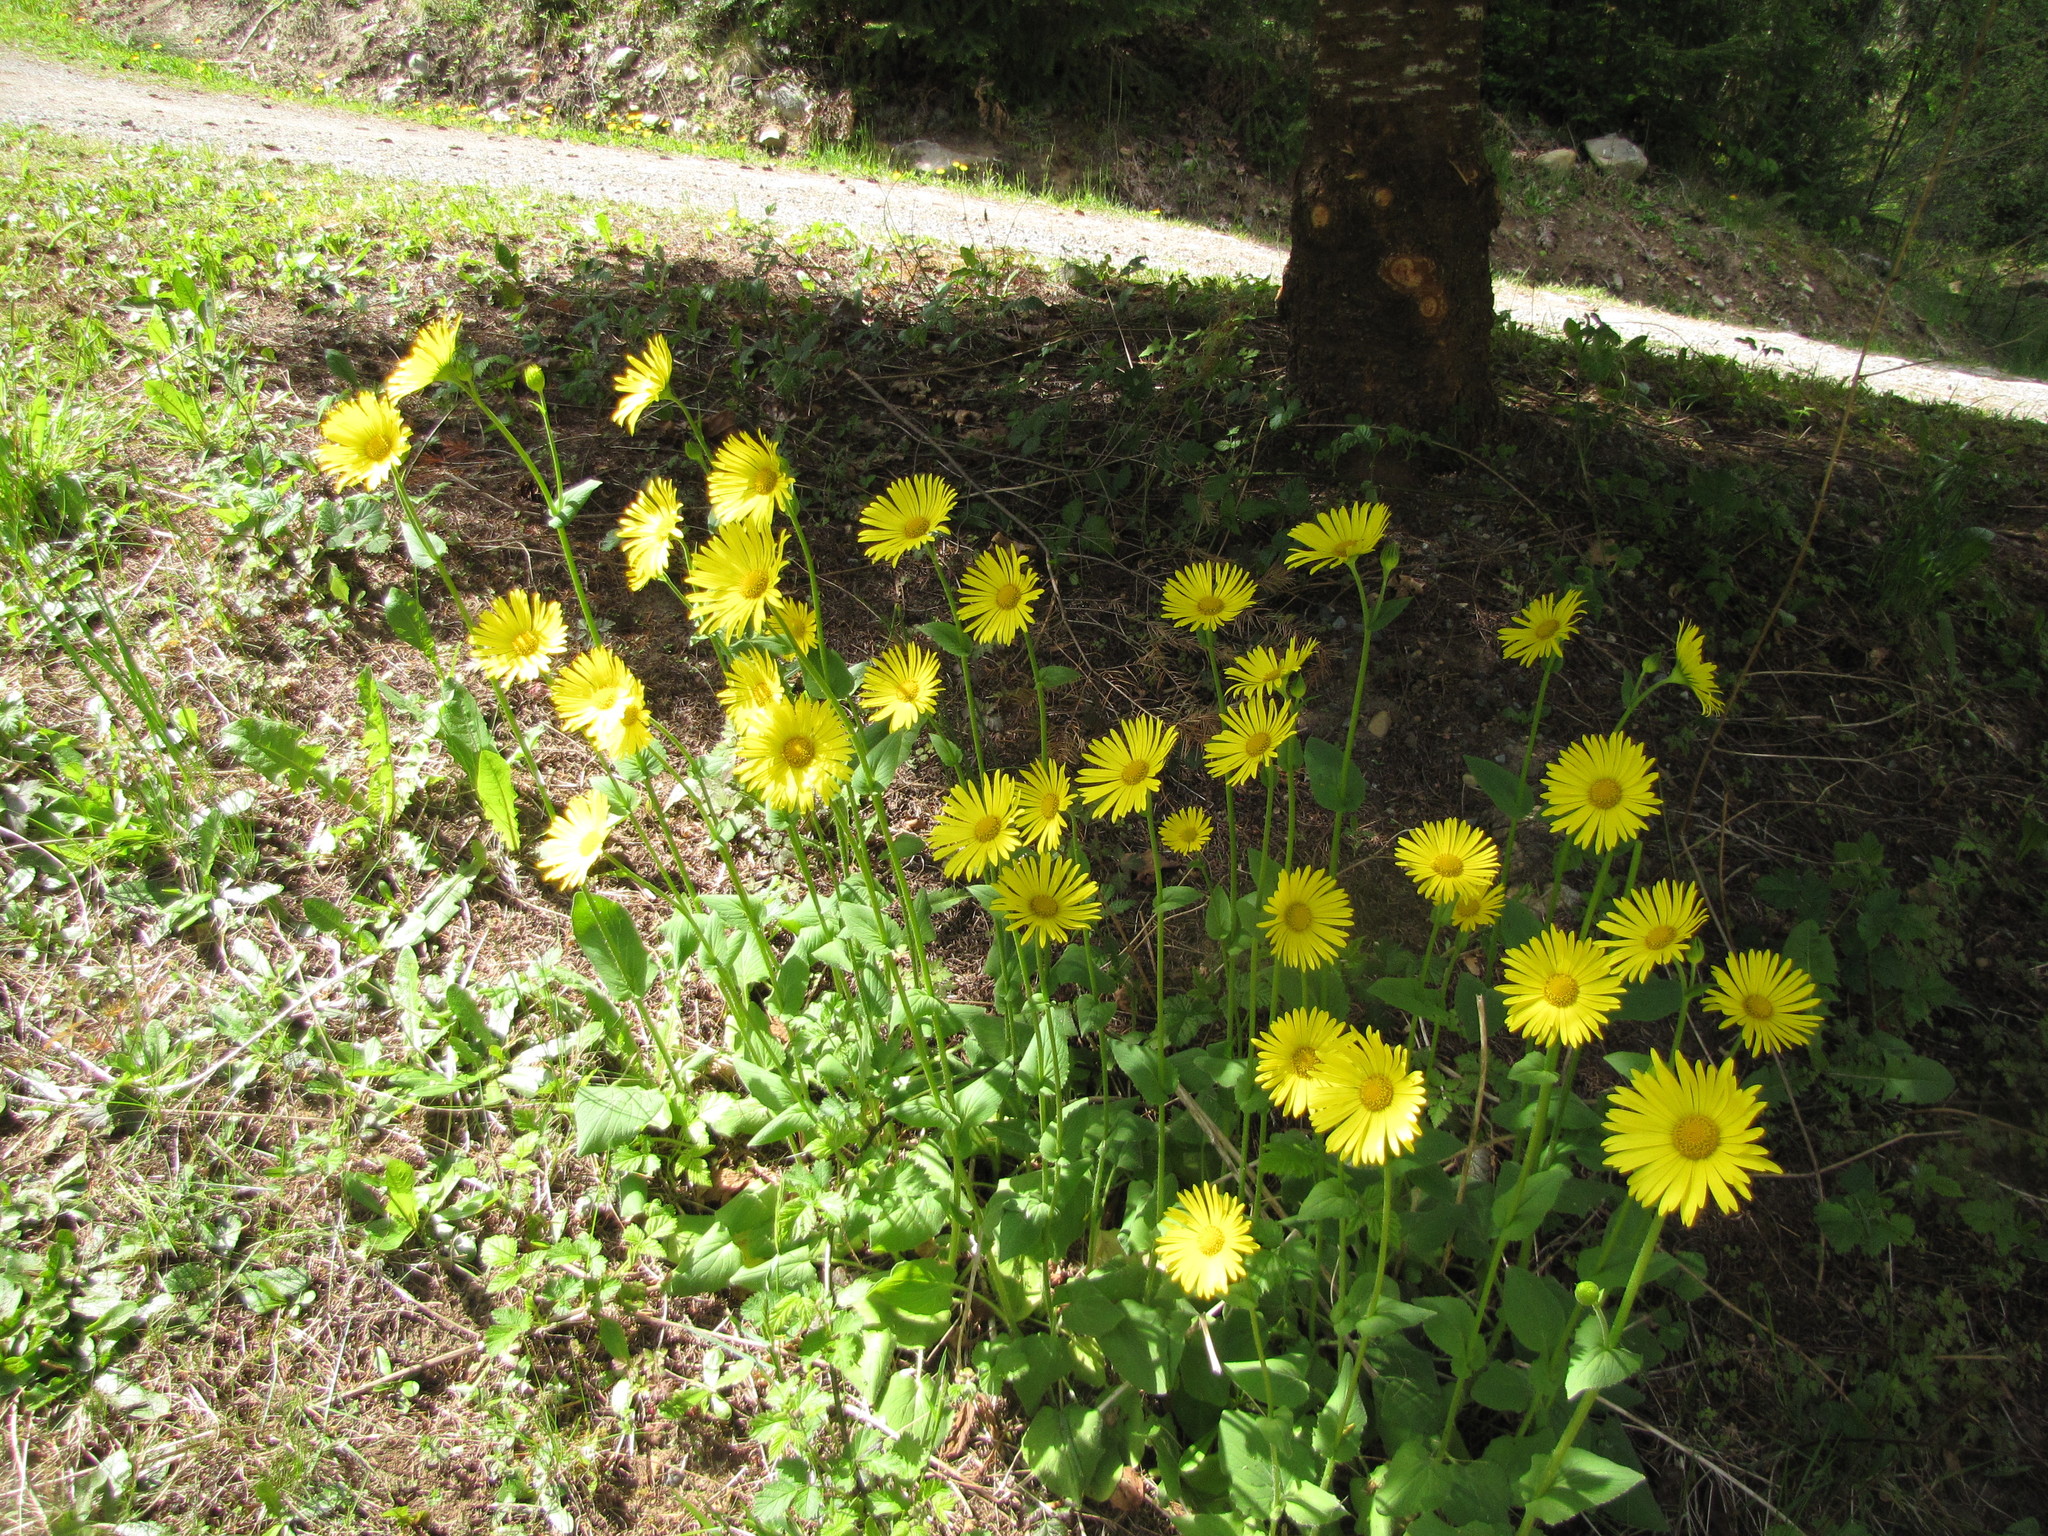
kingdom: Plantae
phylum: Tracheophyta
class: Magnoliopsida
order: Asterales
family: Asteraceae
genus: Doronicum
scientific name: Doronicum pardalianches
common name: Leopard's-bane
